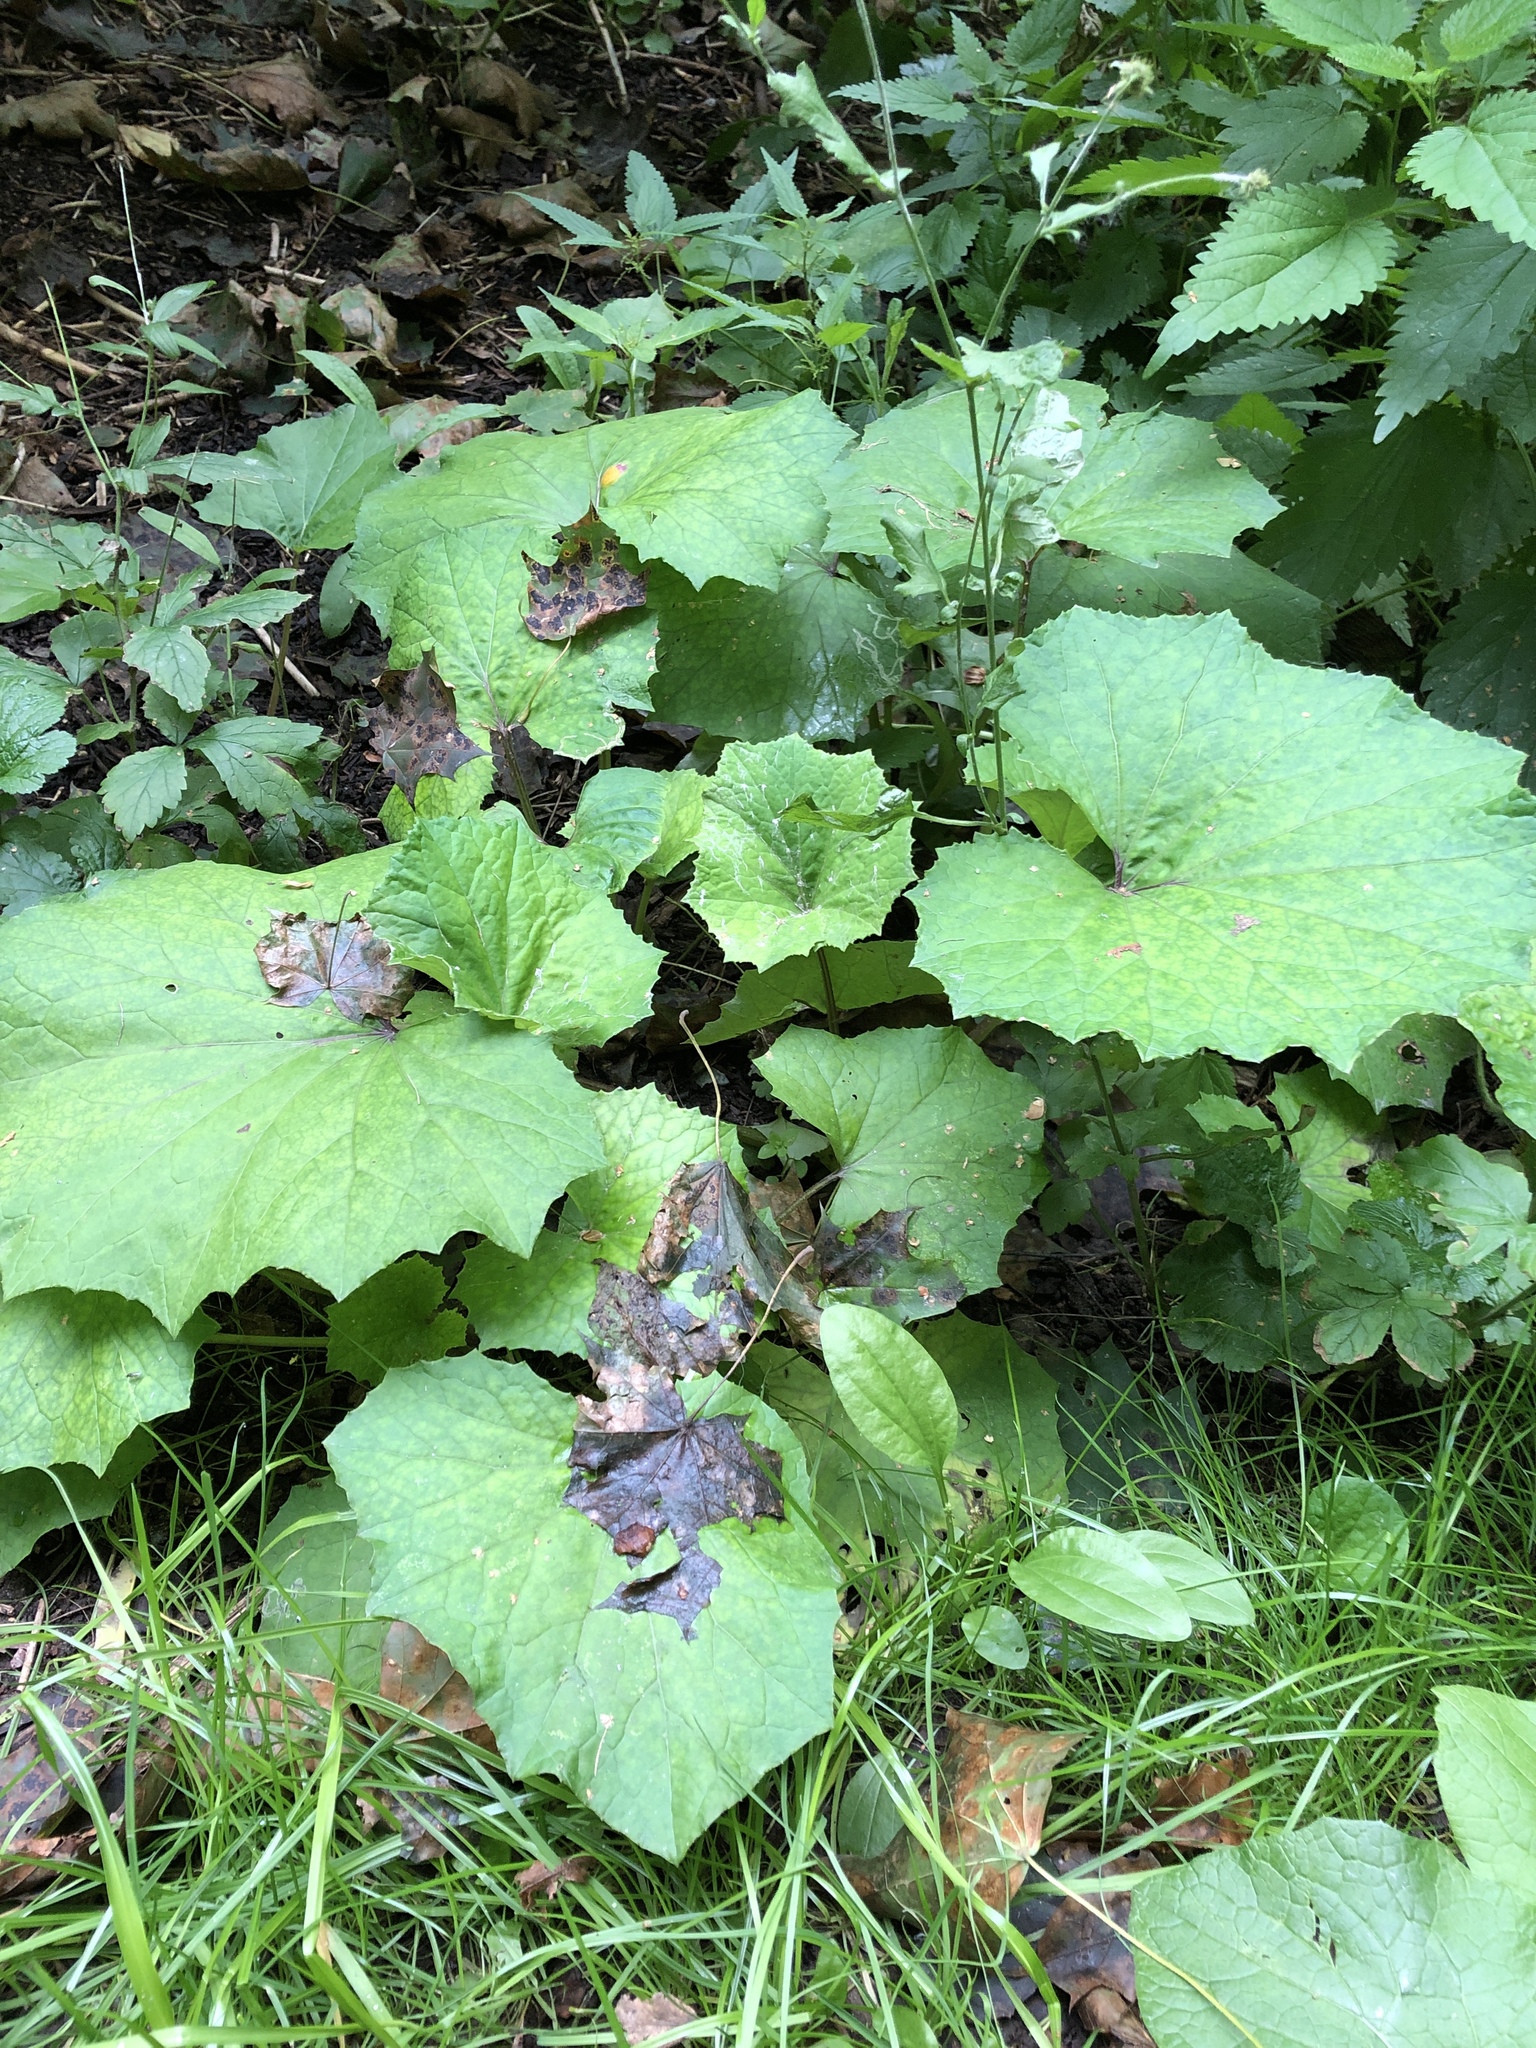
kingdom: Plantae
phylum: Tracheophyta
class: Magnoliopsida
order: Asterales
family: Asteraceae
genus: Tussilago
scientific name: Tussilago farfara
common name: Coltsfoot
